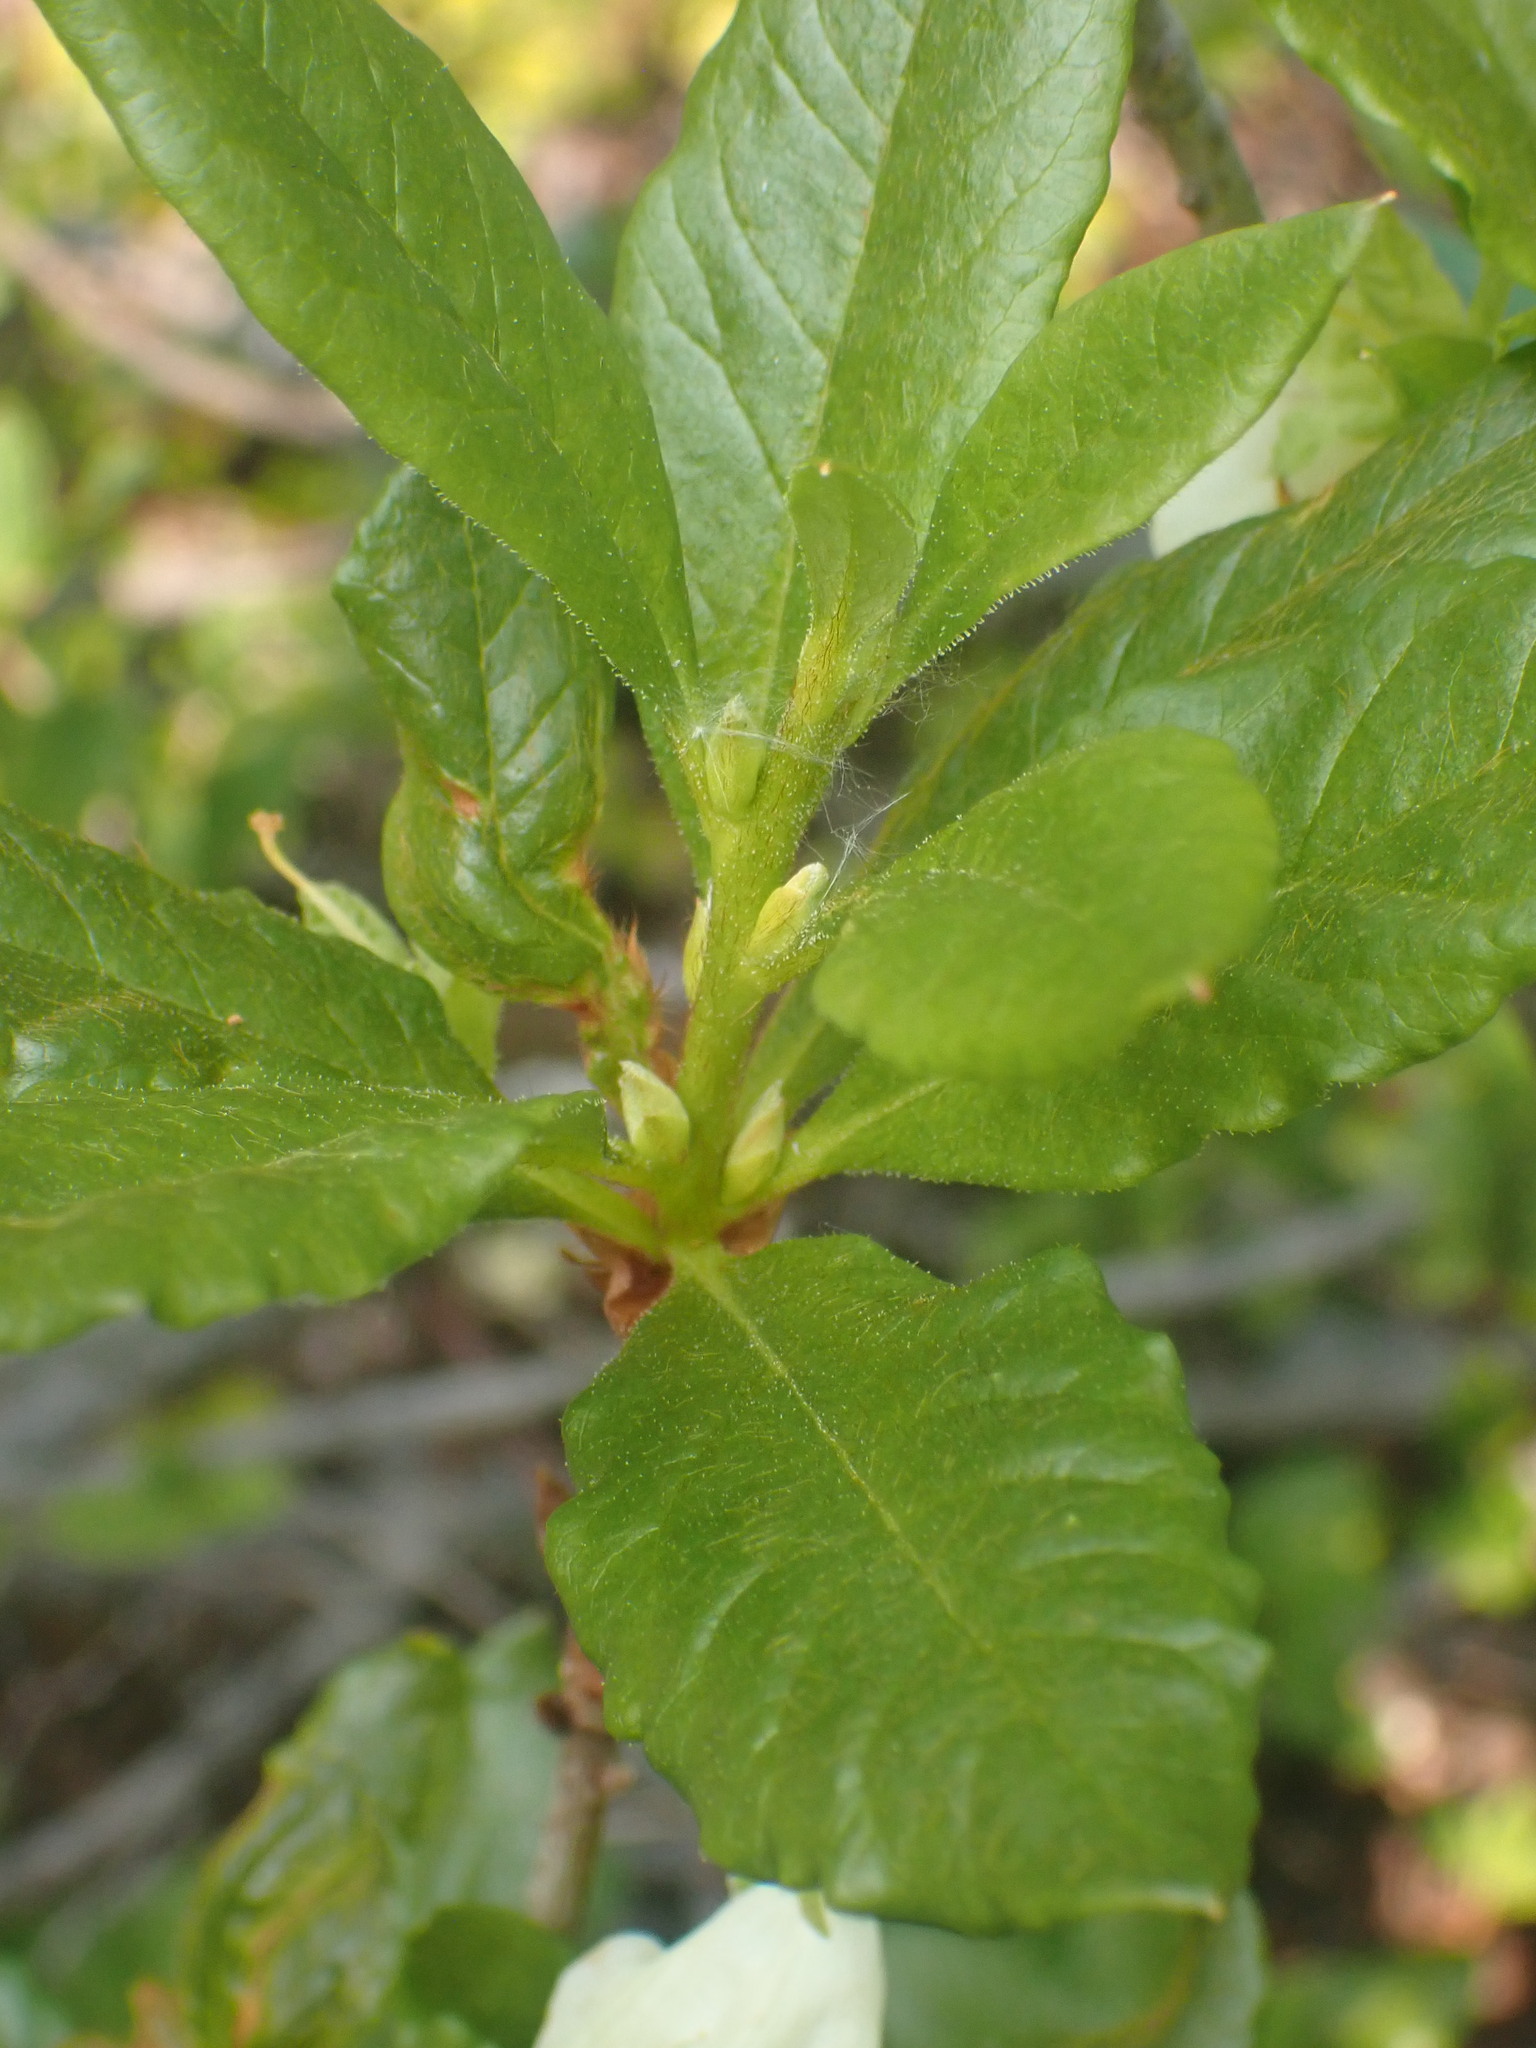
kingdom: Plantae
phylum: Tracheophyta
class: Magnoliopsida
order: Ericales
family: Ericaceae
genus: Rhododendron
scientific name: Rhododendron albiflorum
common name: White rhododendron
